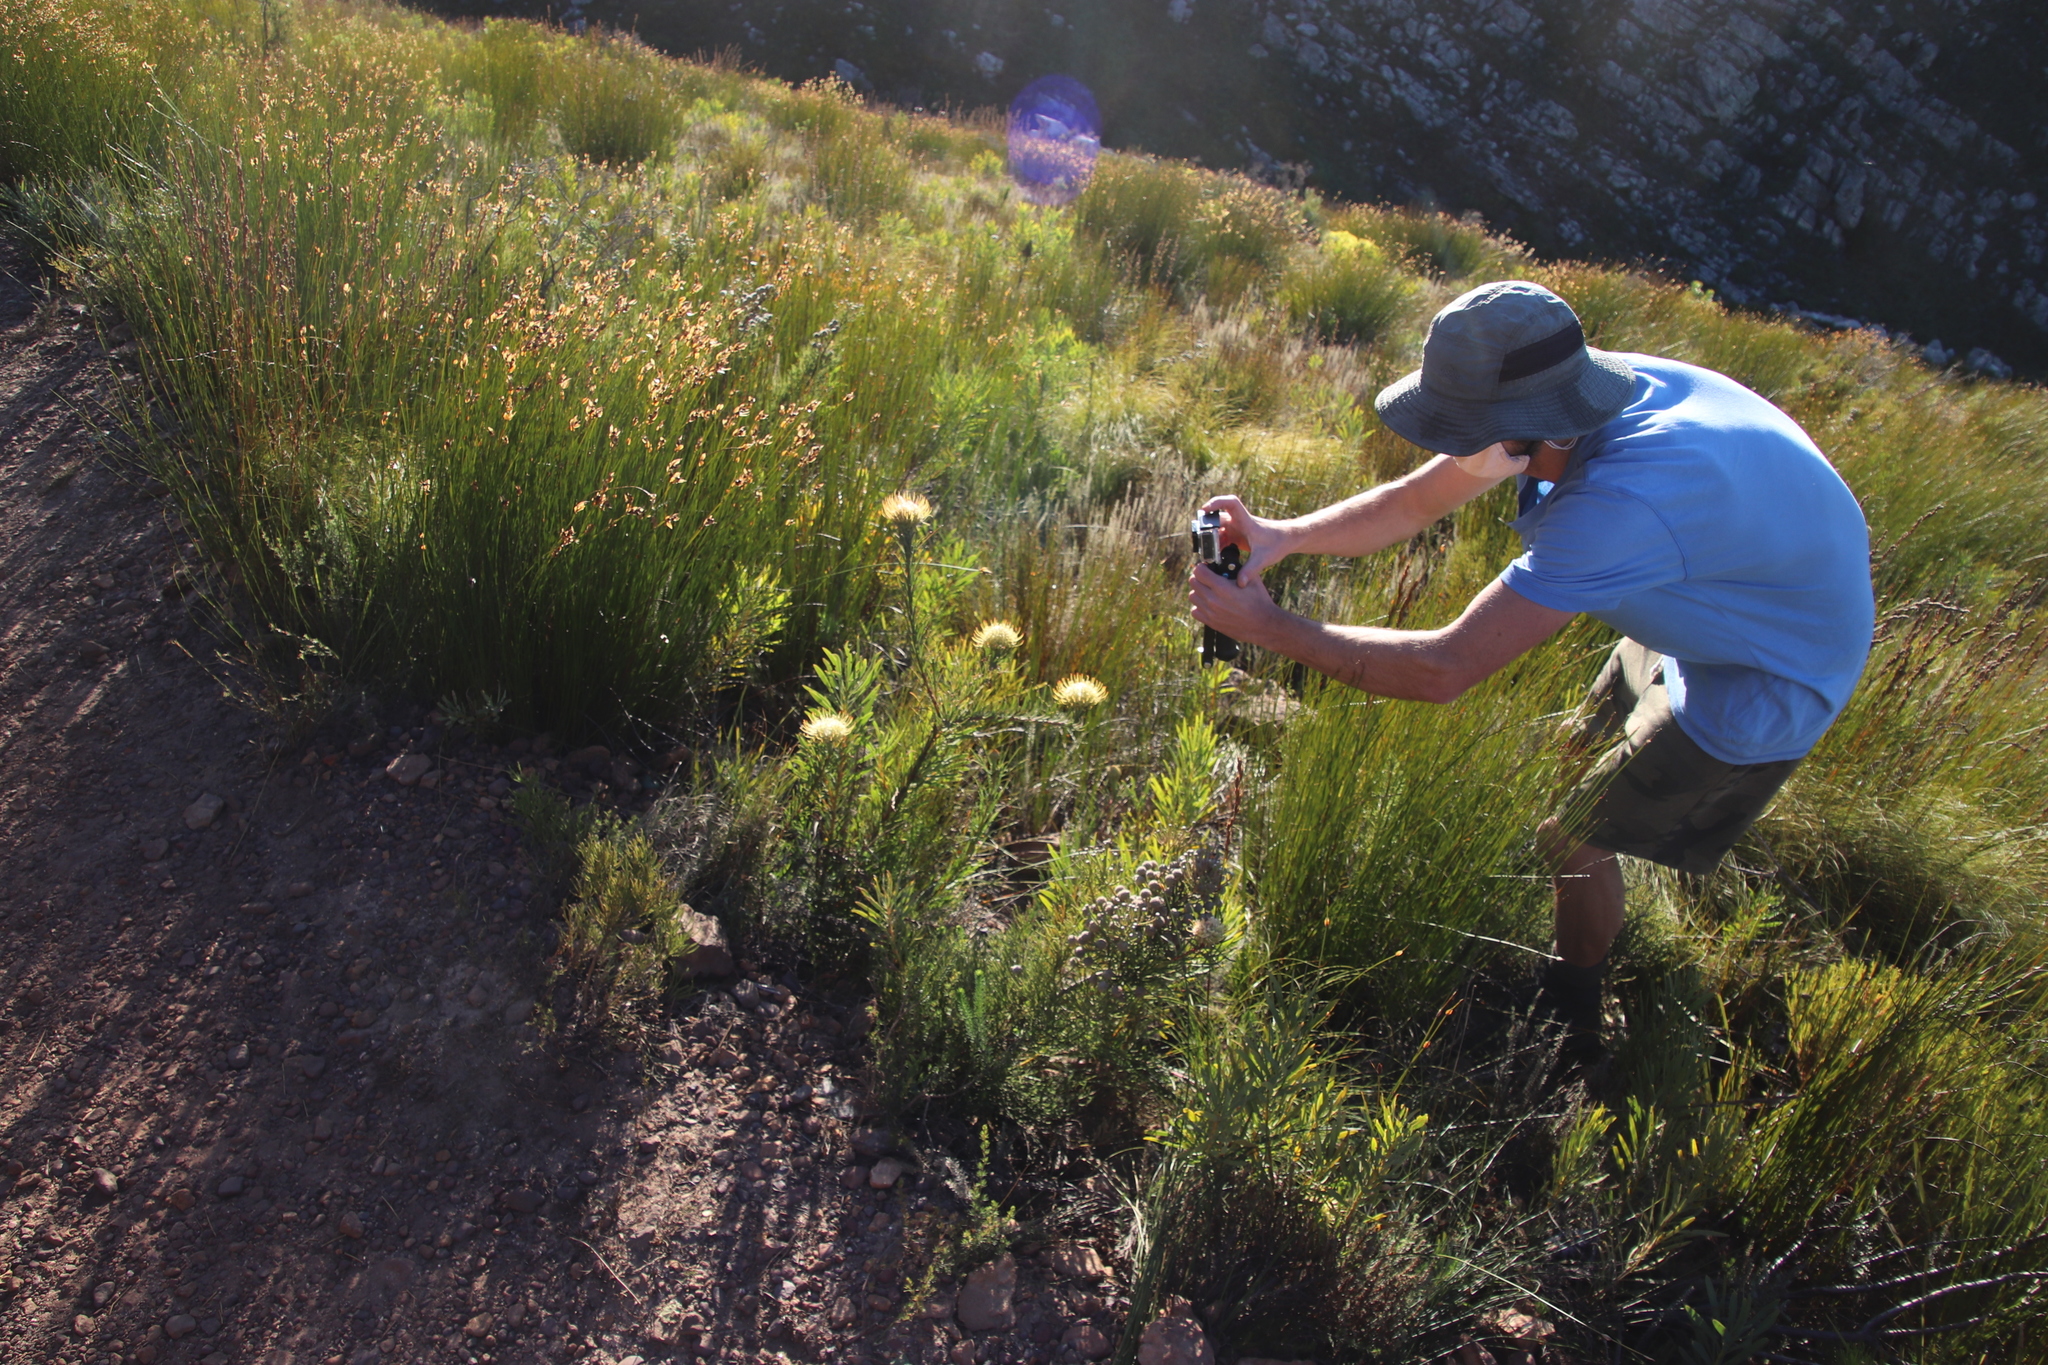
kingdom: Plantae
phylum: Tracheophyta
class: Magnoliopsida
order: Proteales
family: Proteaceae
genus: Leucospermum
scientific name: Leucospermum lineare
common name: Needle-leaf pincushion
